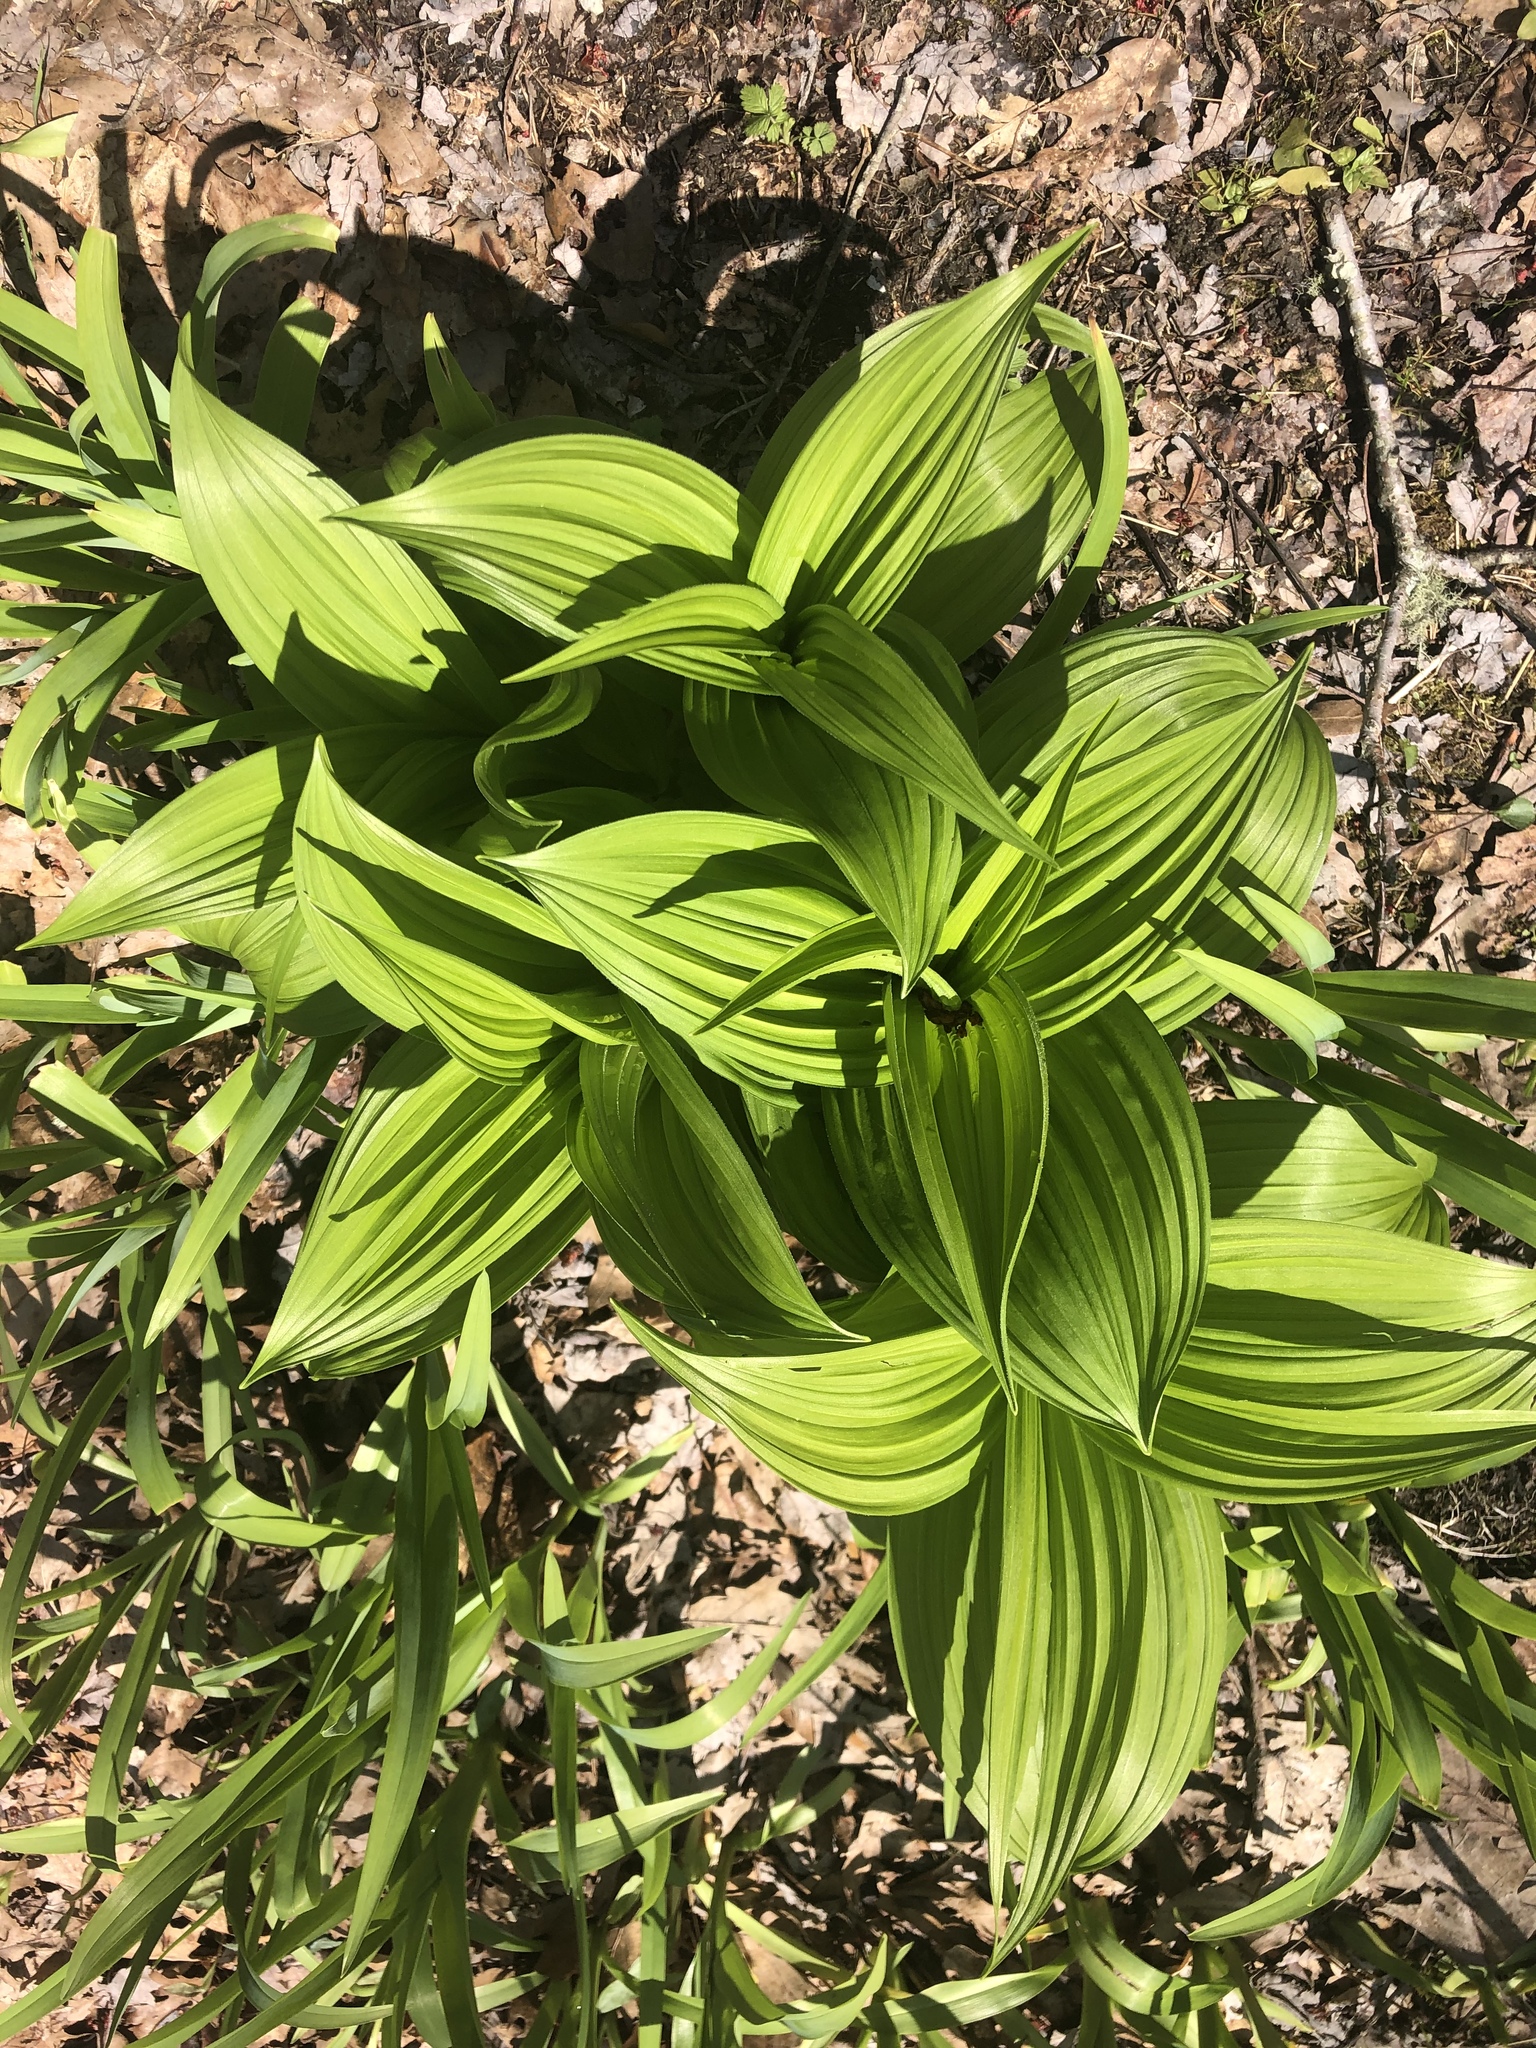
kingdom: Plantae
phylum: Tracheophyta
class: Liliopsida
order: Liliales
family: Melanthiaceae
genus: Veratrum
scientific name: Veratrum viride
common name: American false hellebore
